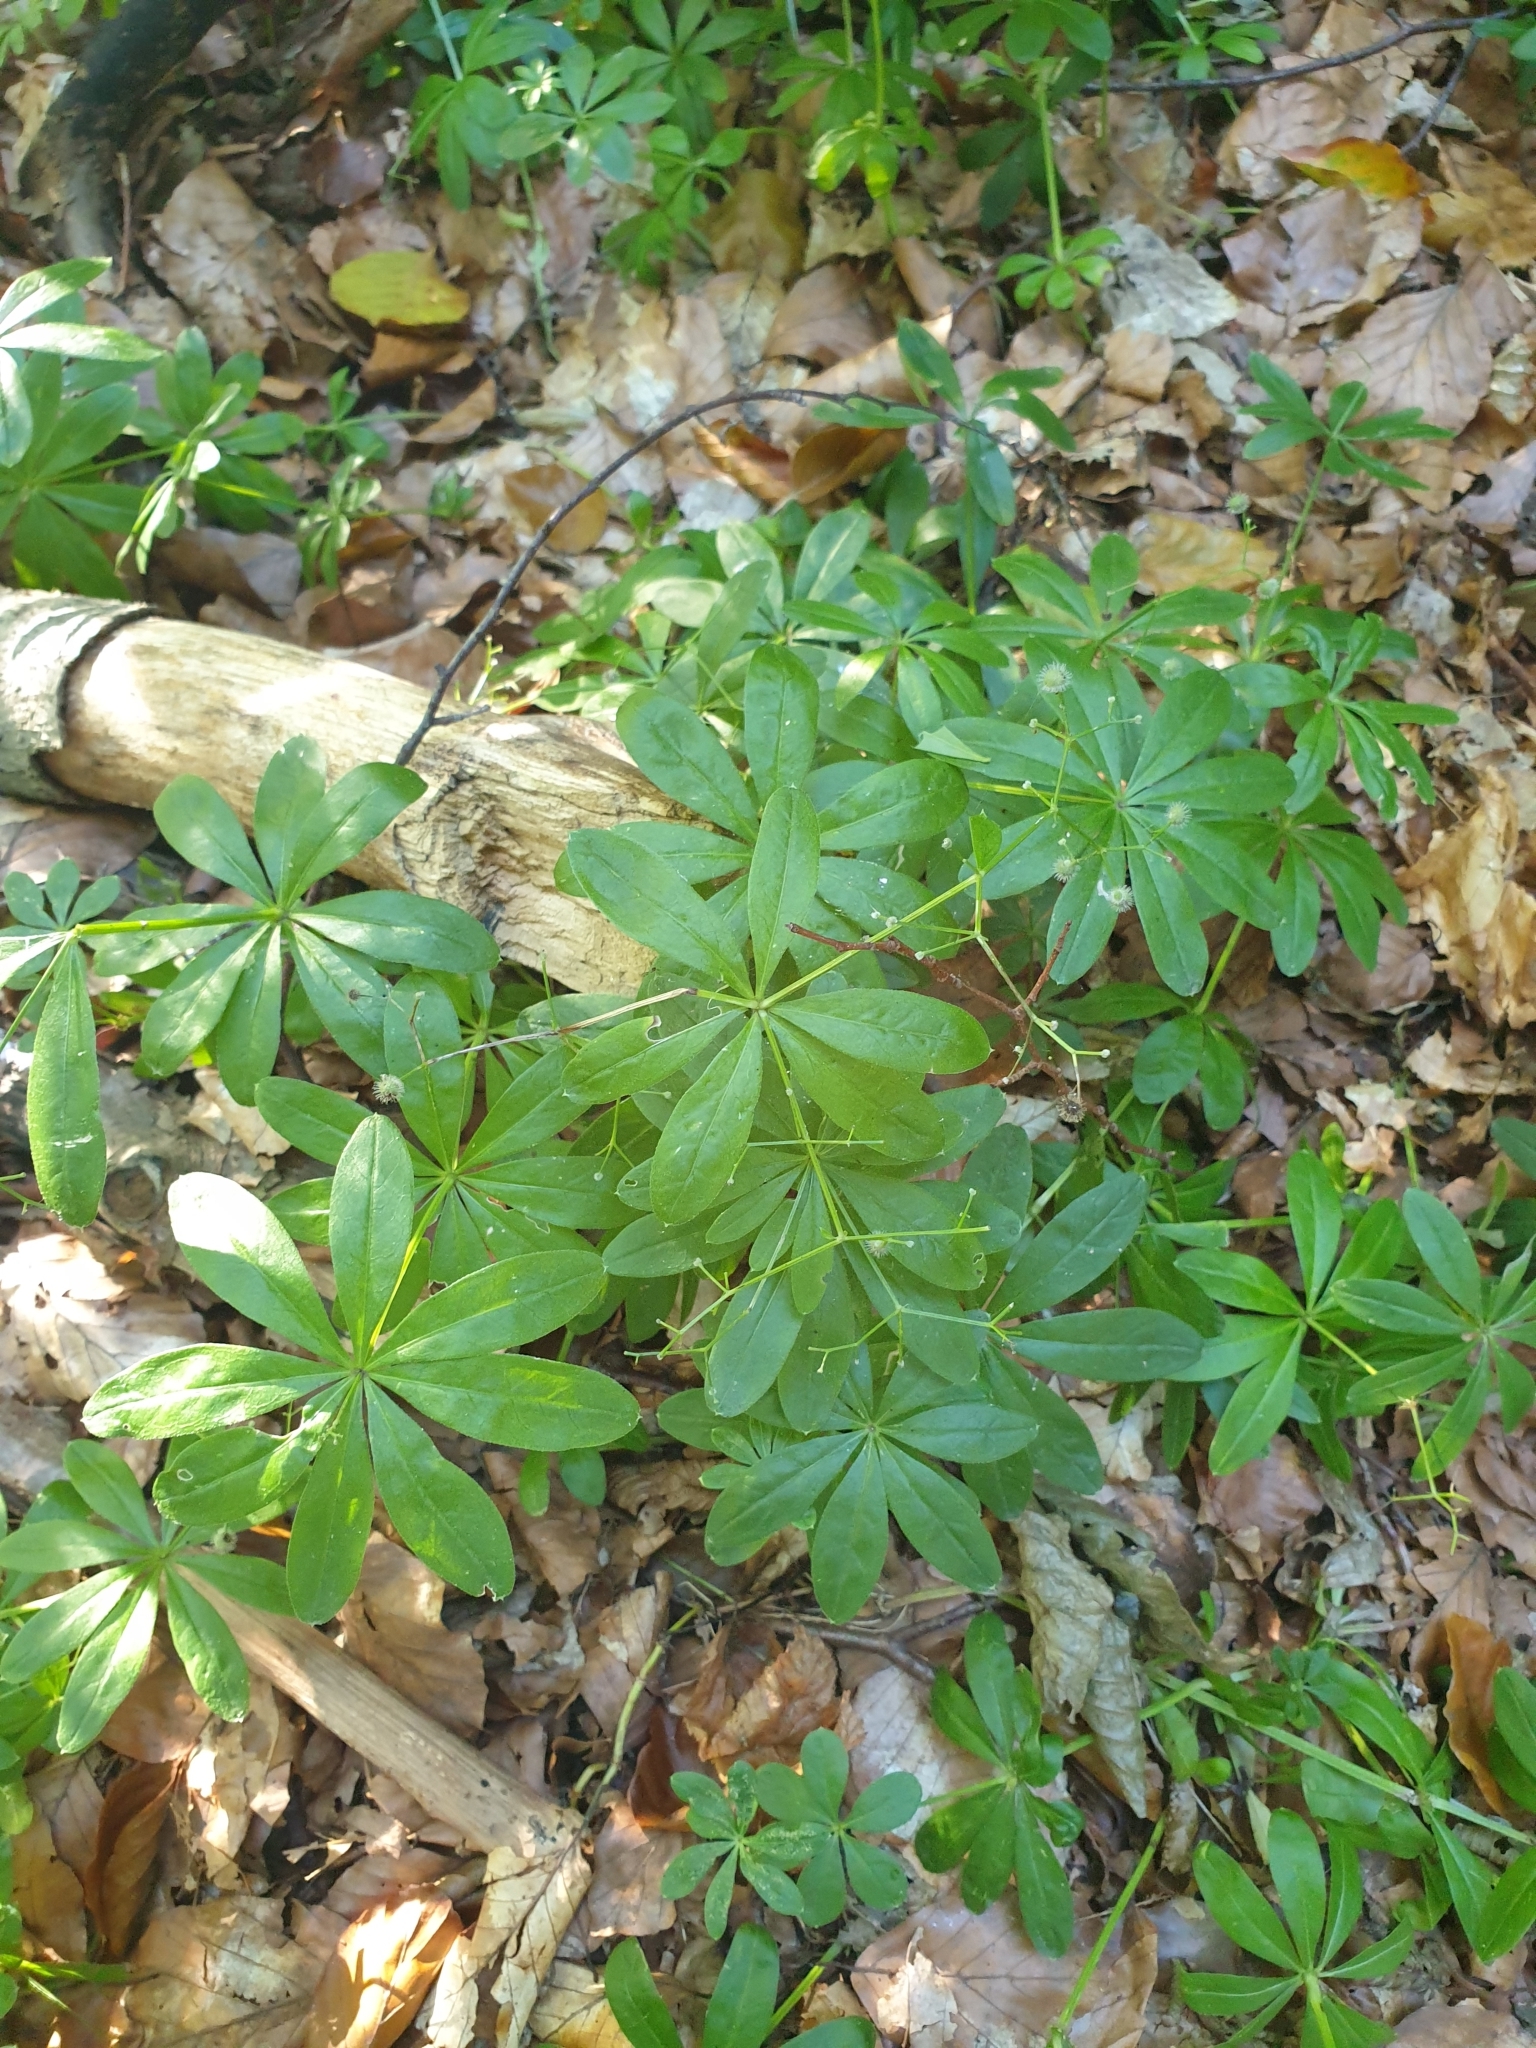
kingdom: Plantae
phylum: Tracheophyta
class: Magnoliopsida
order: Gentianales
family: Rubiaceae
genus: Galium
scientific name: Galium odoratum
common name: Sweet woodruff
